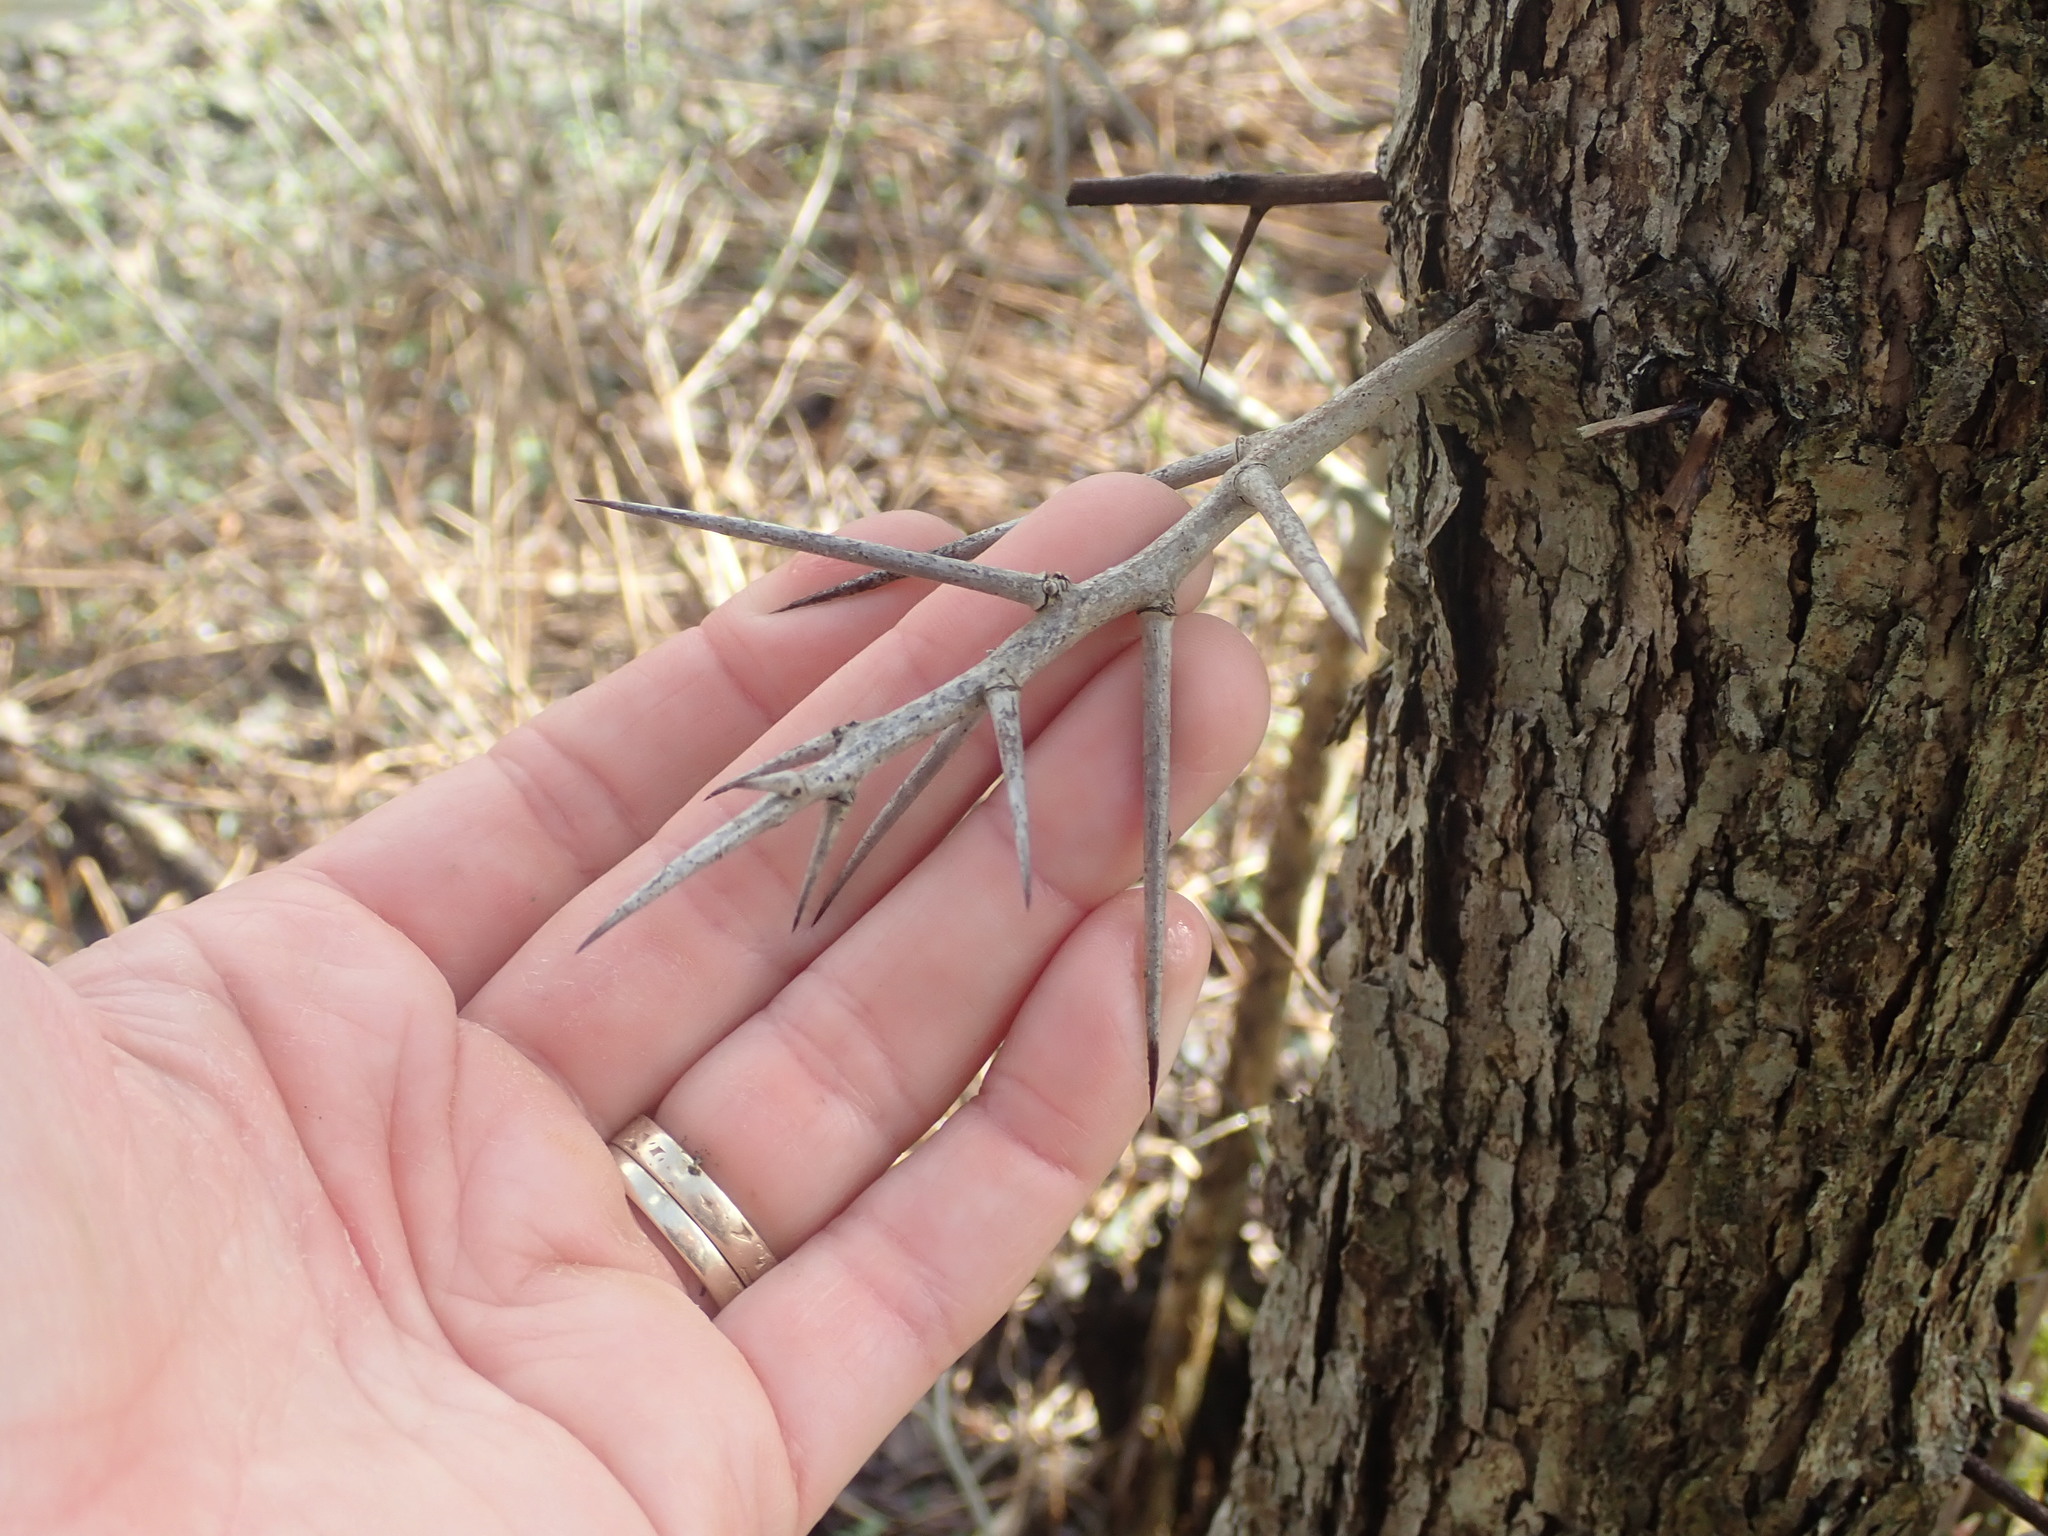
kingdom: Plantae
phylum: Tracheophyta
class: Magnoliopsida
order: Fabales
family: Fabaceae
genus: Gleditsia
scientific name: Gleditsia triacanthos
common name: Common honeylocust
